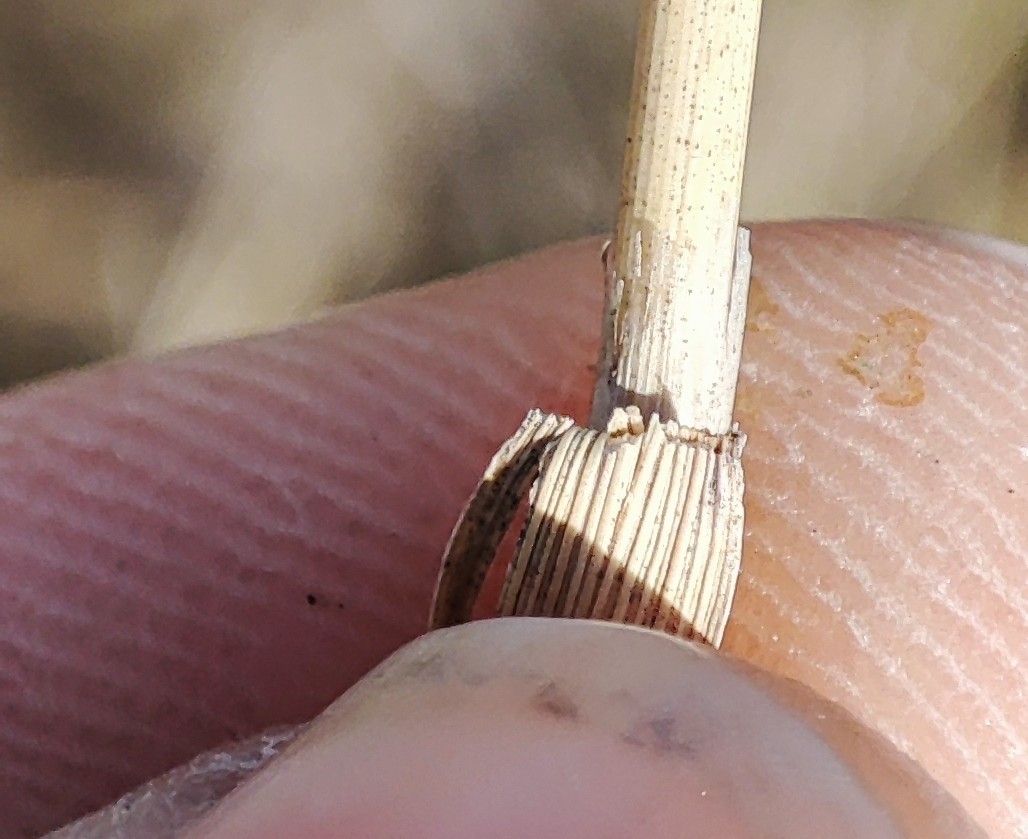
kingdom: Plantae
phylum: Tracheophyta
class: Liliopsida
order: Poales
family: Poaceae
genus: Calamagrostis
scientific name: Calamagrostis epigejos
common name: Wood small-reed
